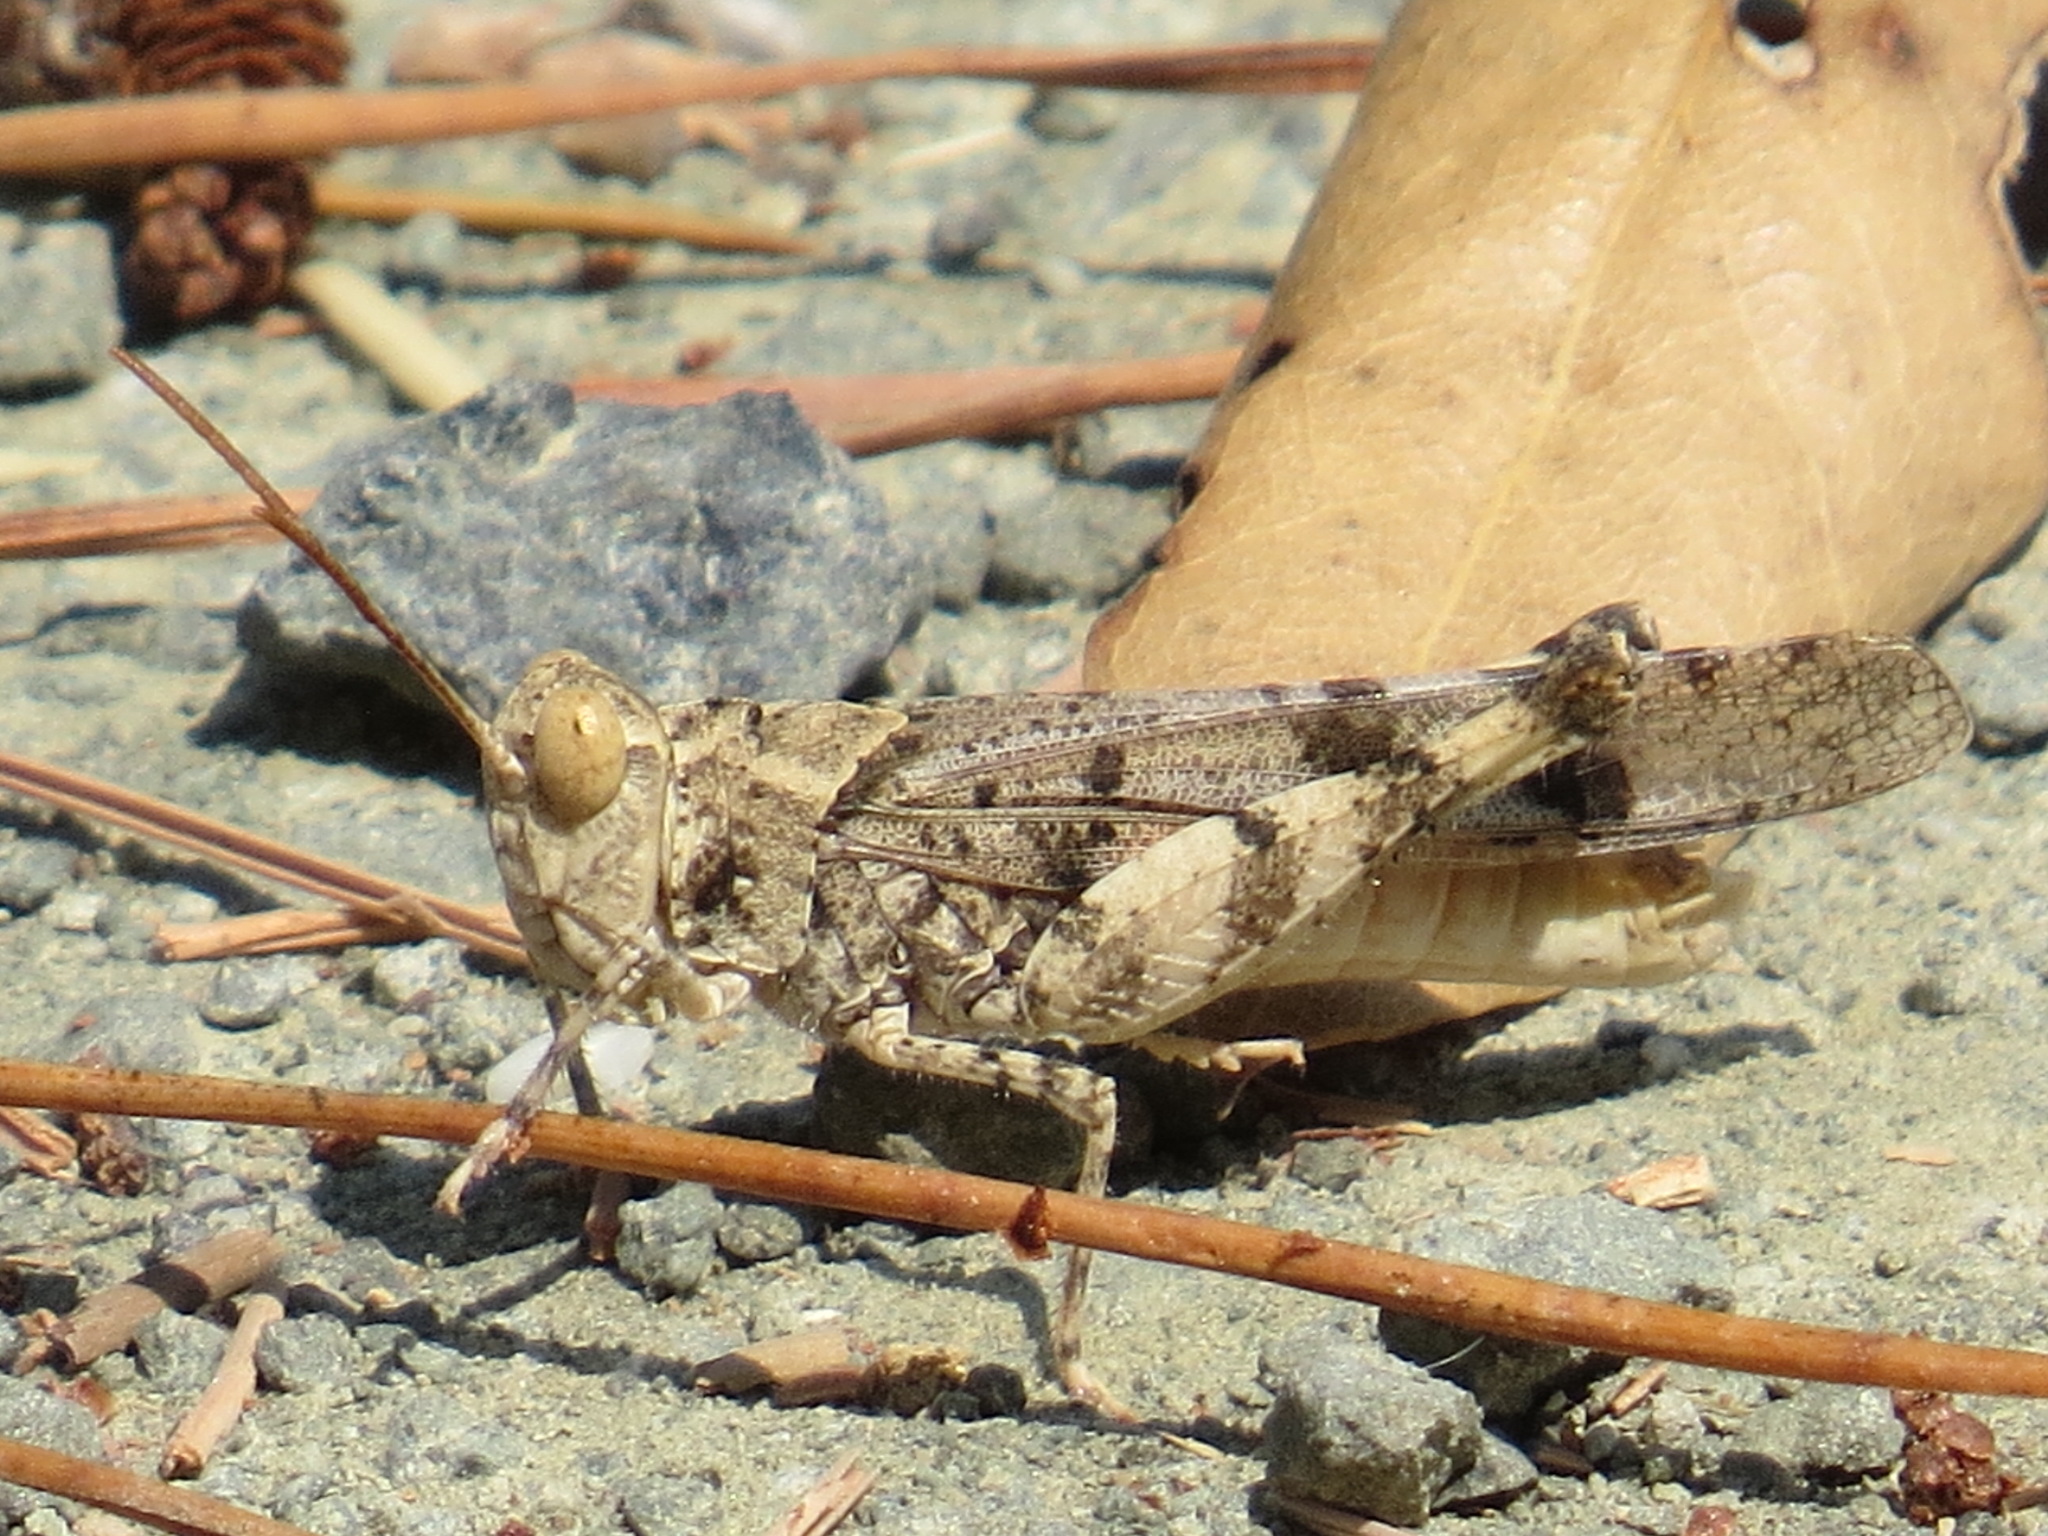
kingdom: Animalia
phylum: Arthropoda
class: Insecta
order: Orthoptera
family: Acrididae
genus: Dissosteira
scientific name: Dissosteira pictipennis
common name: California rose-winged grasshopper
